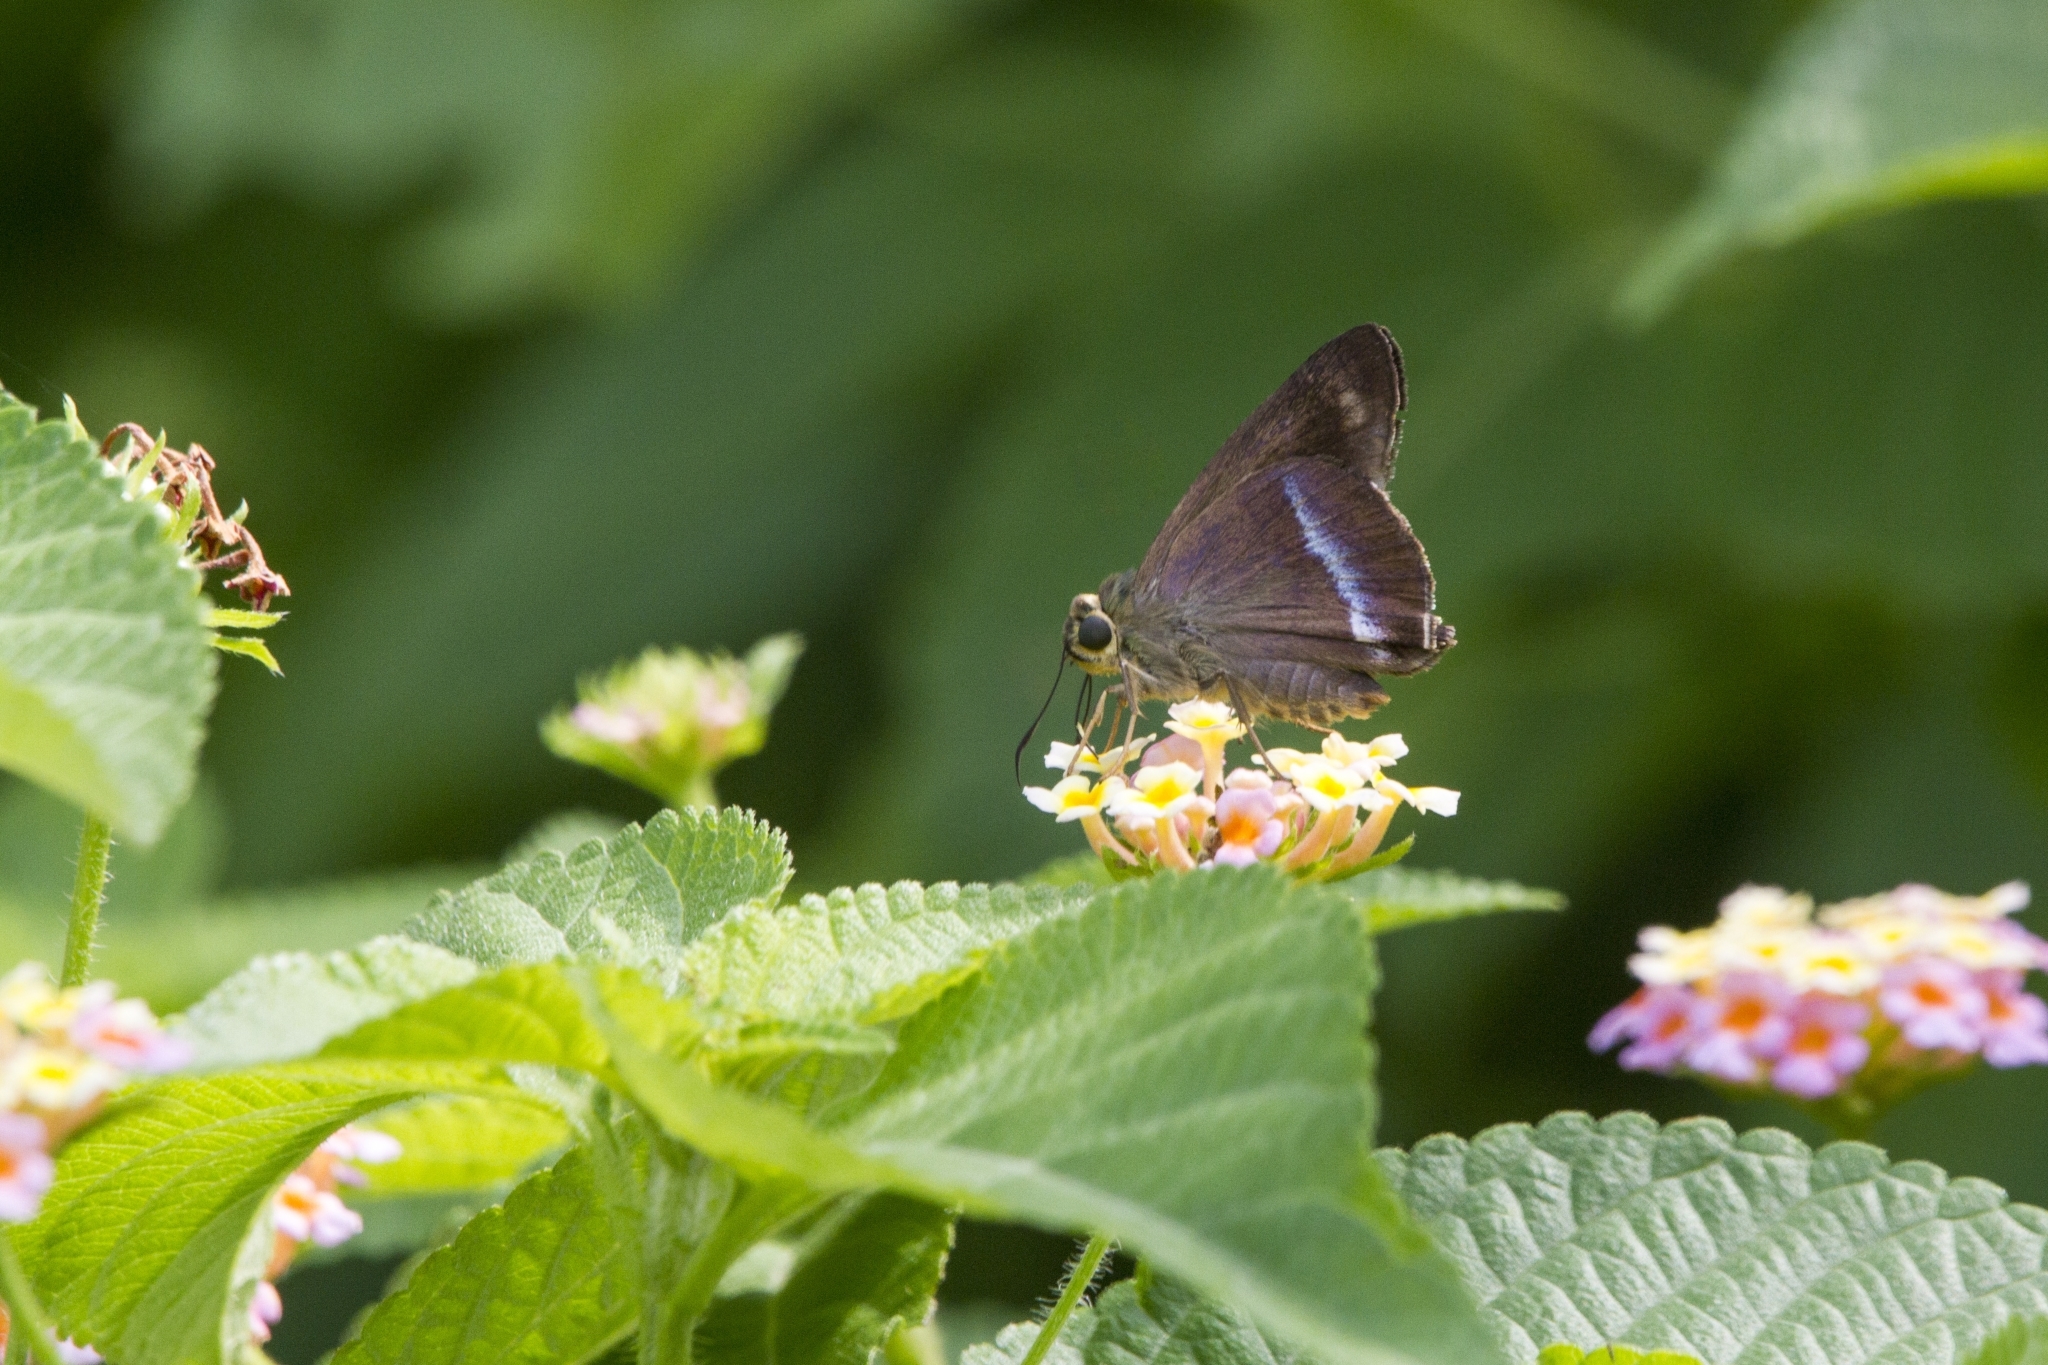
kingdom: Animalia
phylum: Arthropoda
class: Insecta
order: Lepidoptera
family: Hesperiidae
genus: Hasora
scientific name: Hasora chromus
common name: Common banded awl
